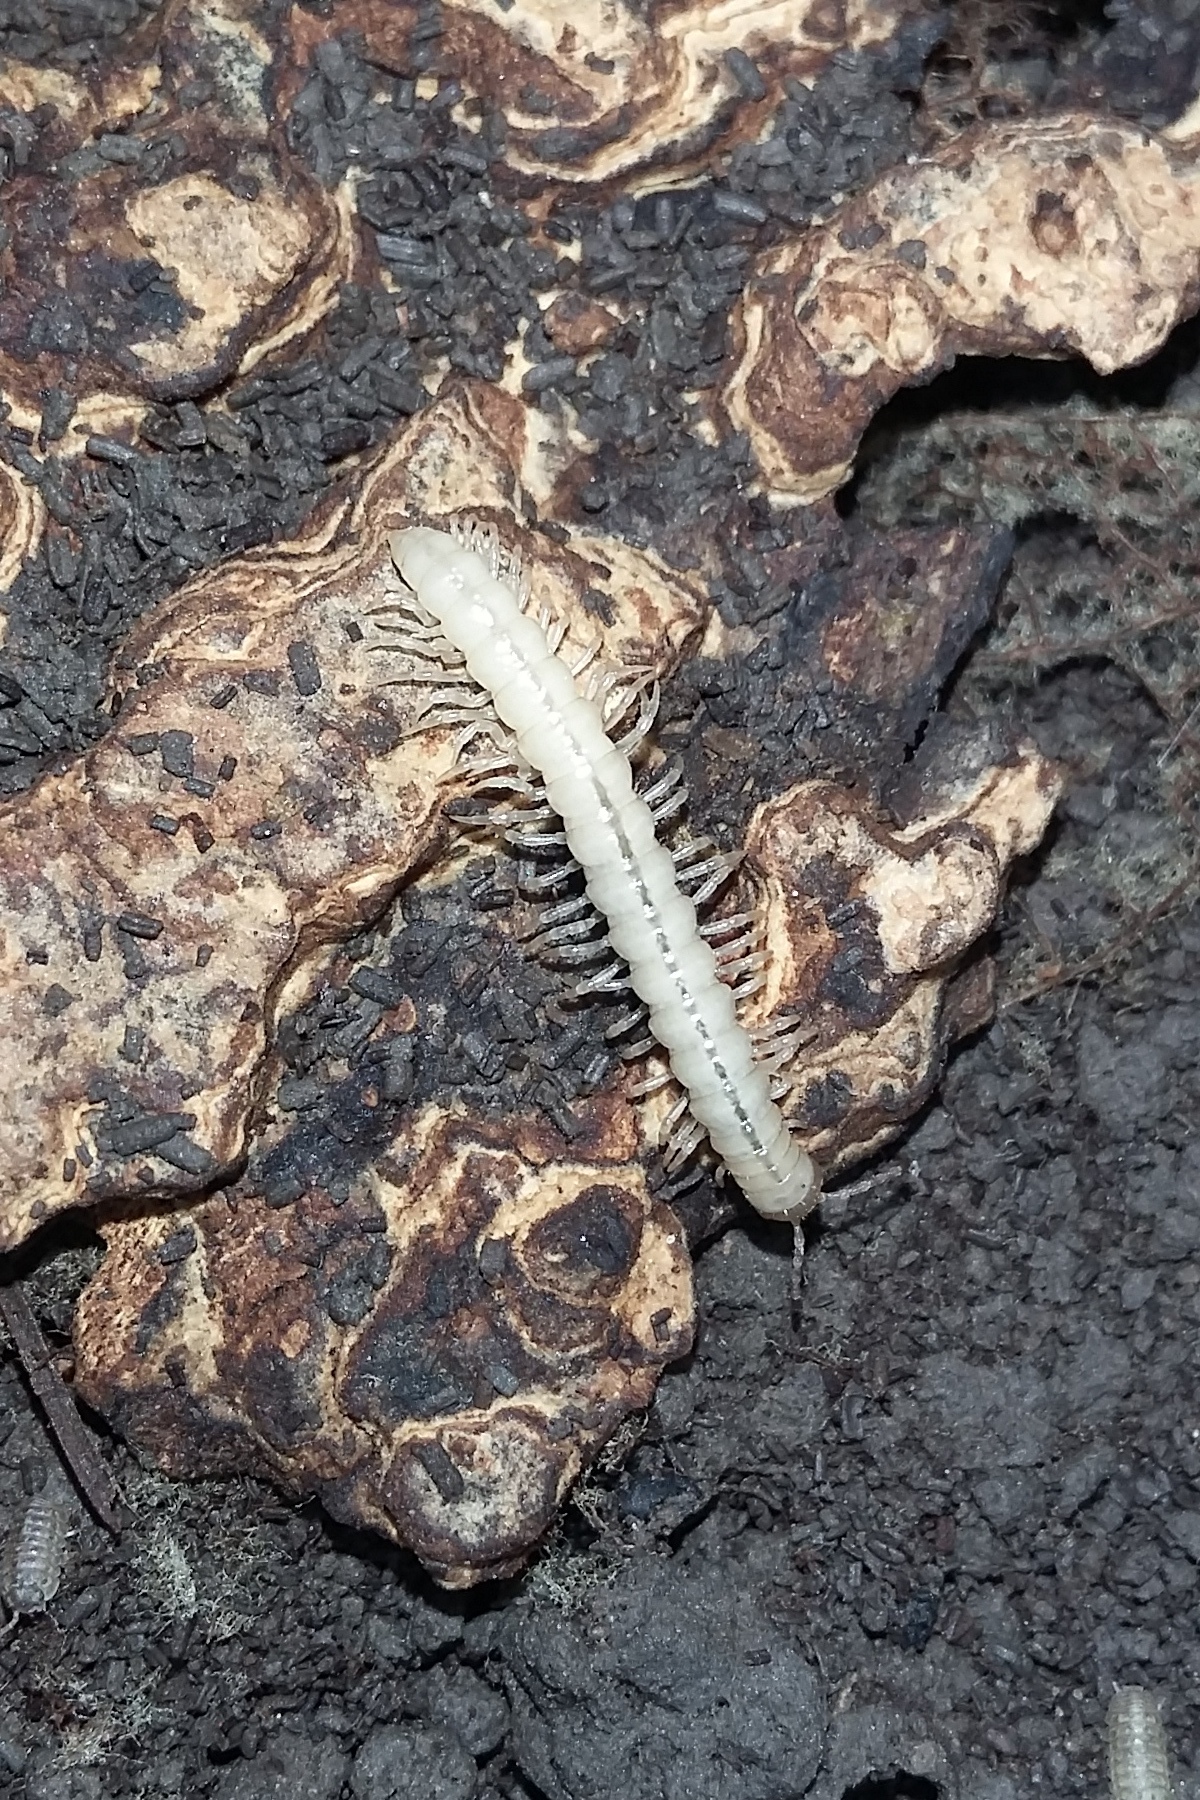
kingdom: Animalia
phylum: Arthropoda
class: Diplopoda
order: Polydesmida
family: Paradoxosomatidae
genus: Strongylosoma
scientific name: Strongylosoma stigmatosus
